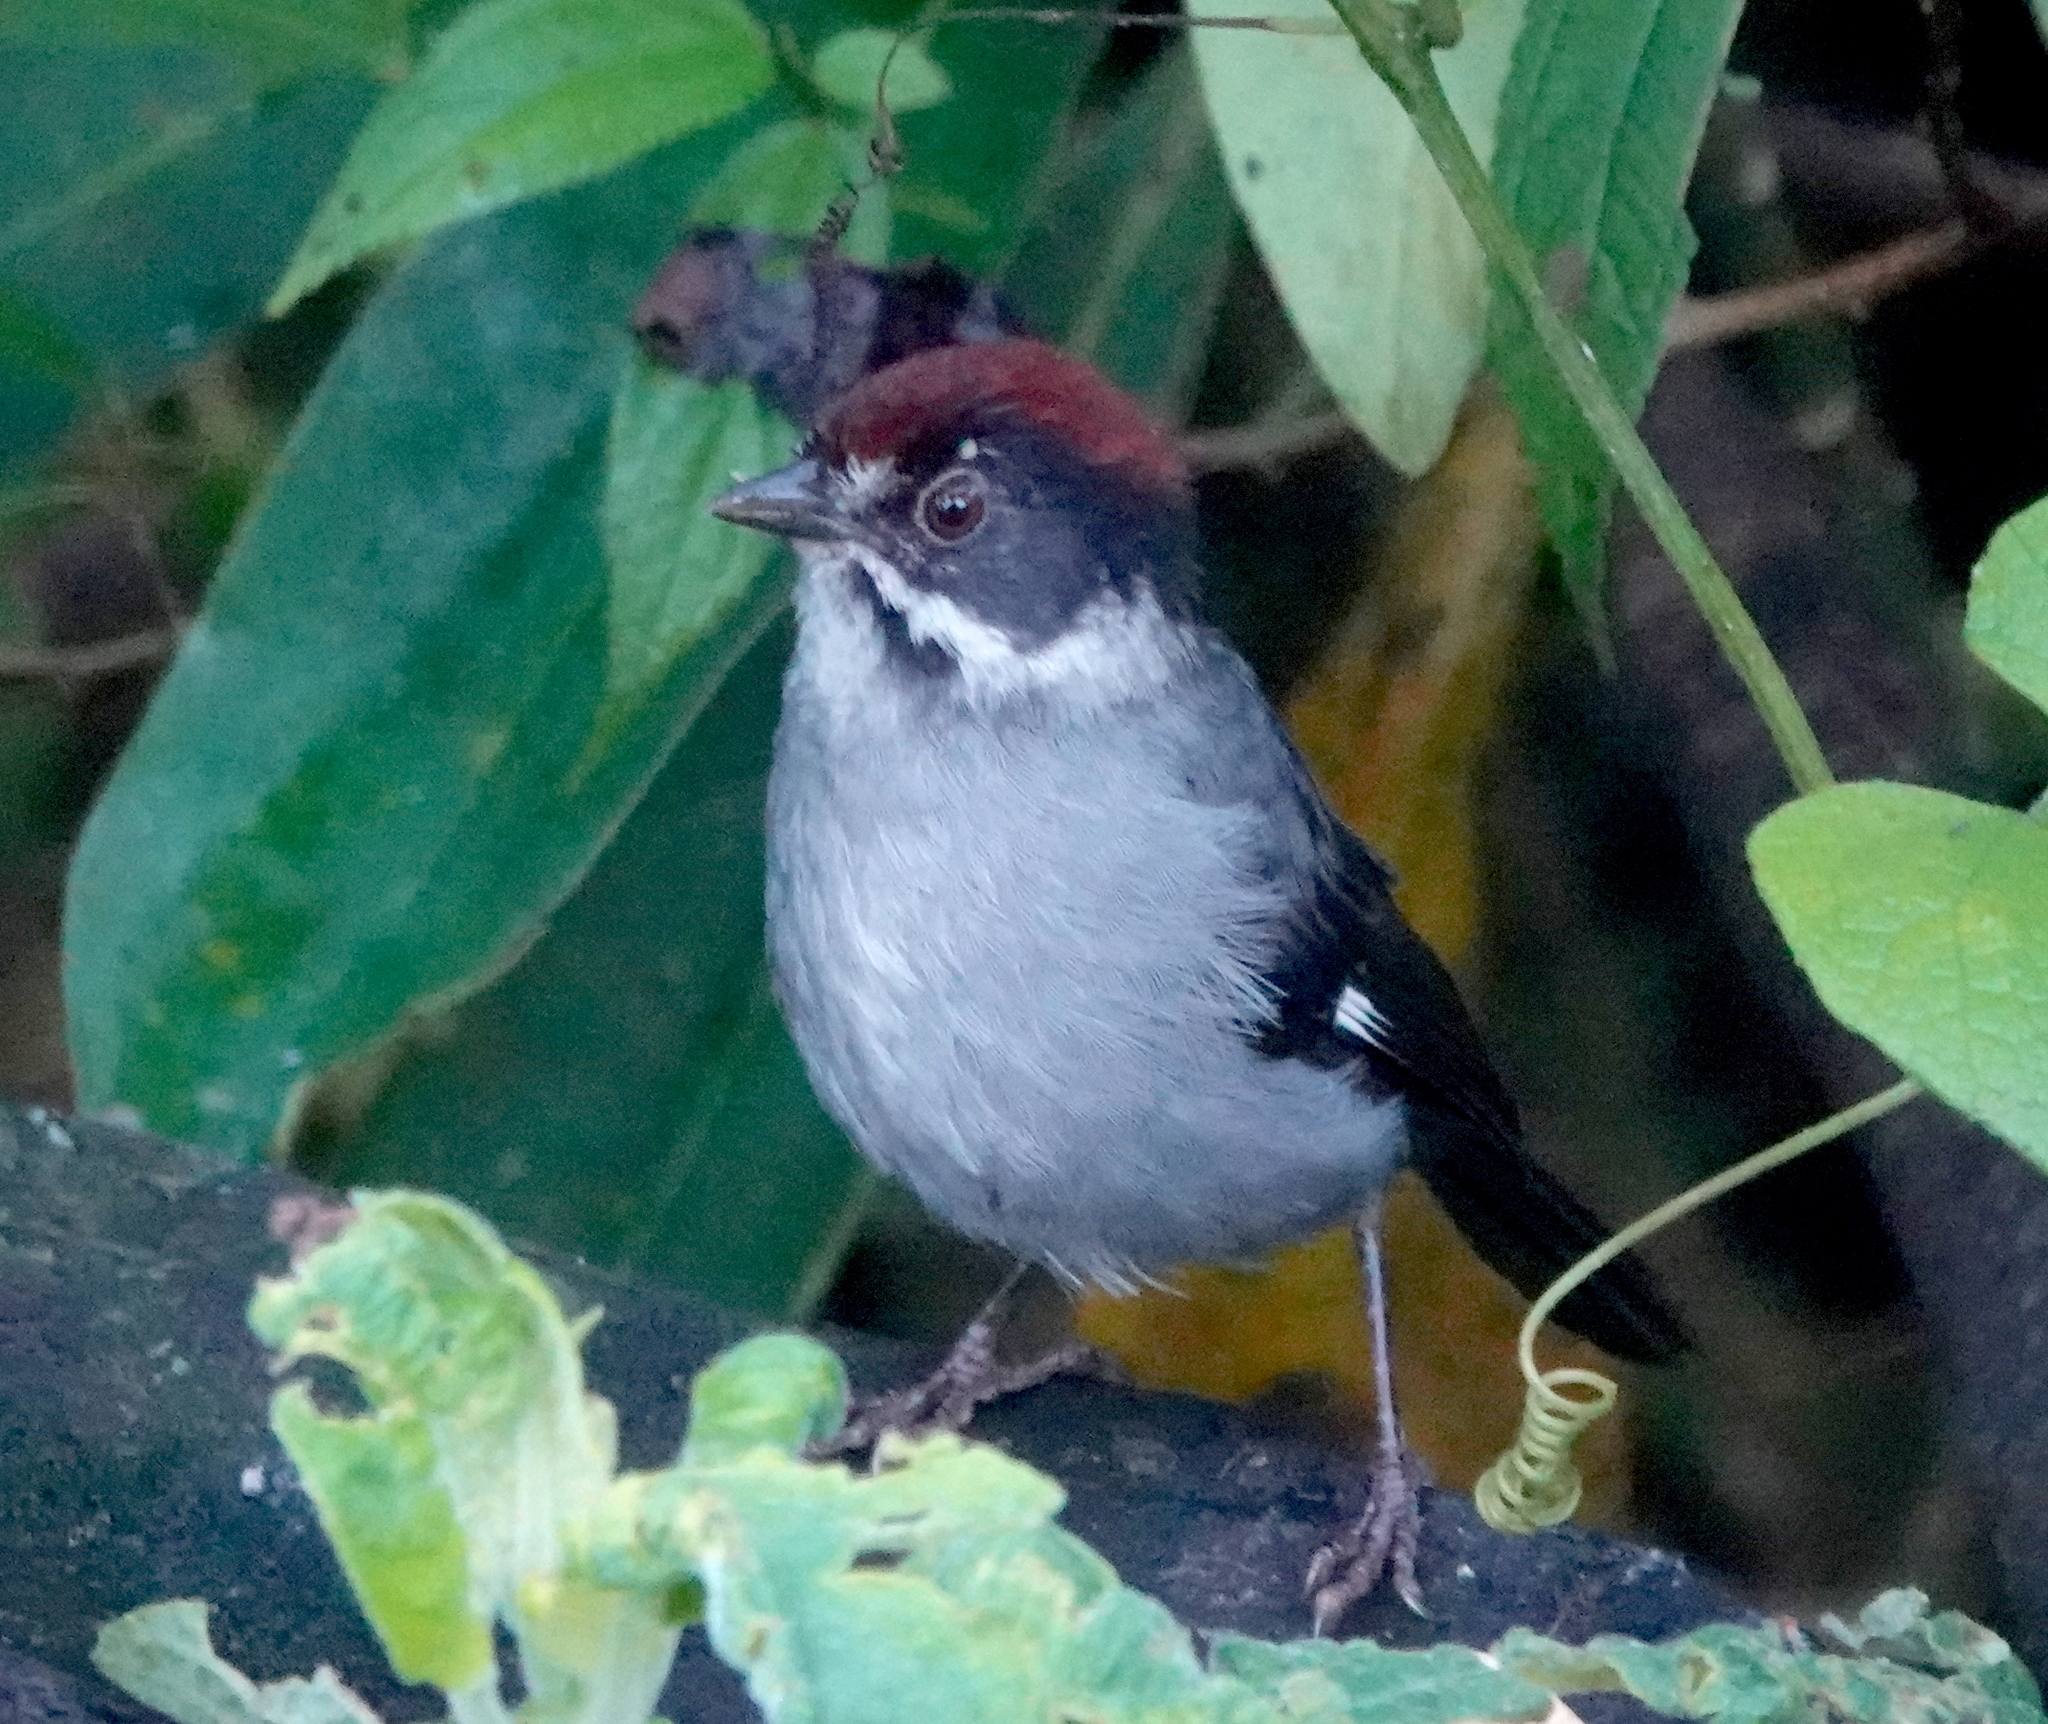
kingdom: Animalia
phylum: Chordata
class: Aves
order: Passeriformes
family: Passerellidae
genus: Atlapetes
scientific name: Atlapetes schistaceus
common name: Slaty brushfinch
